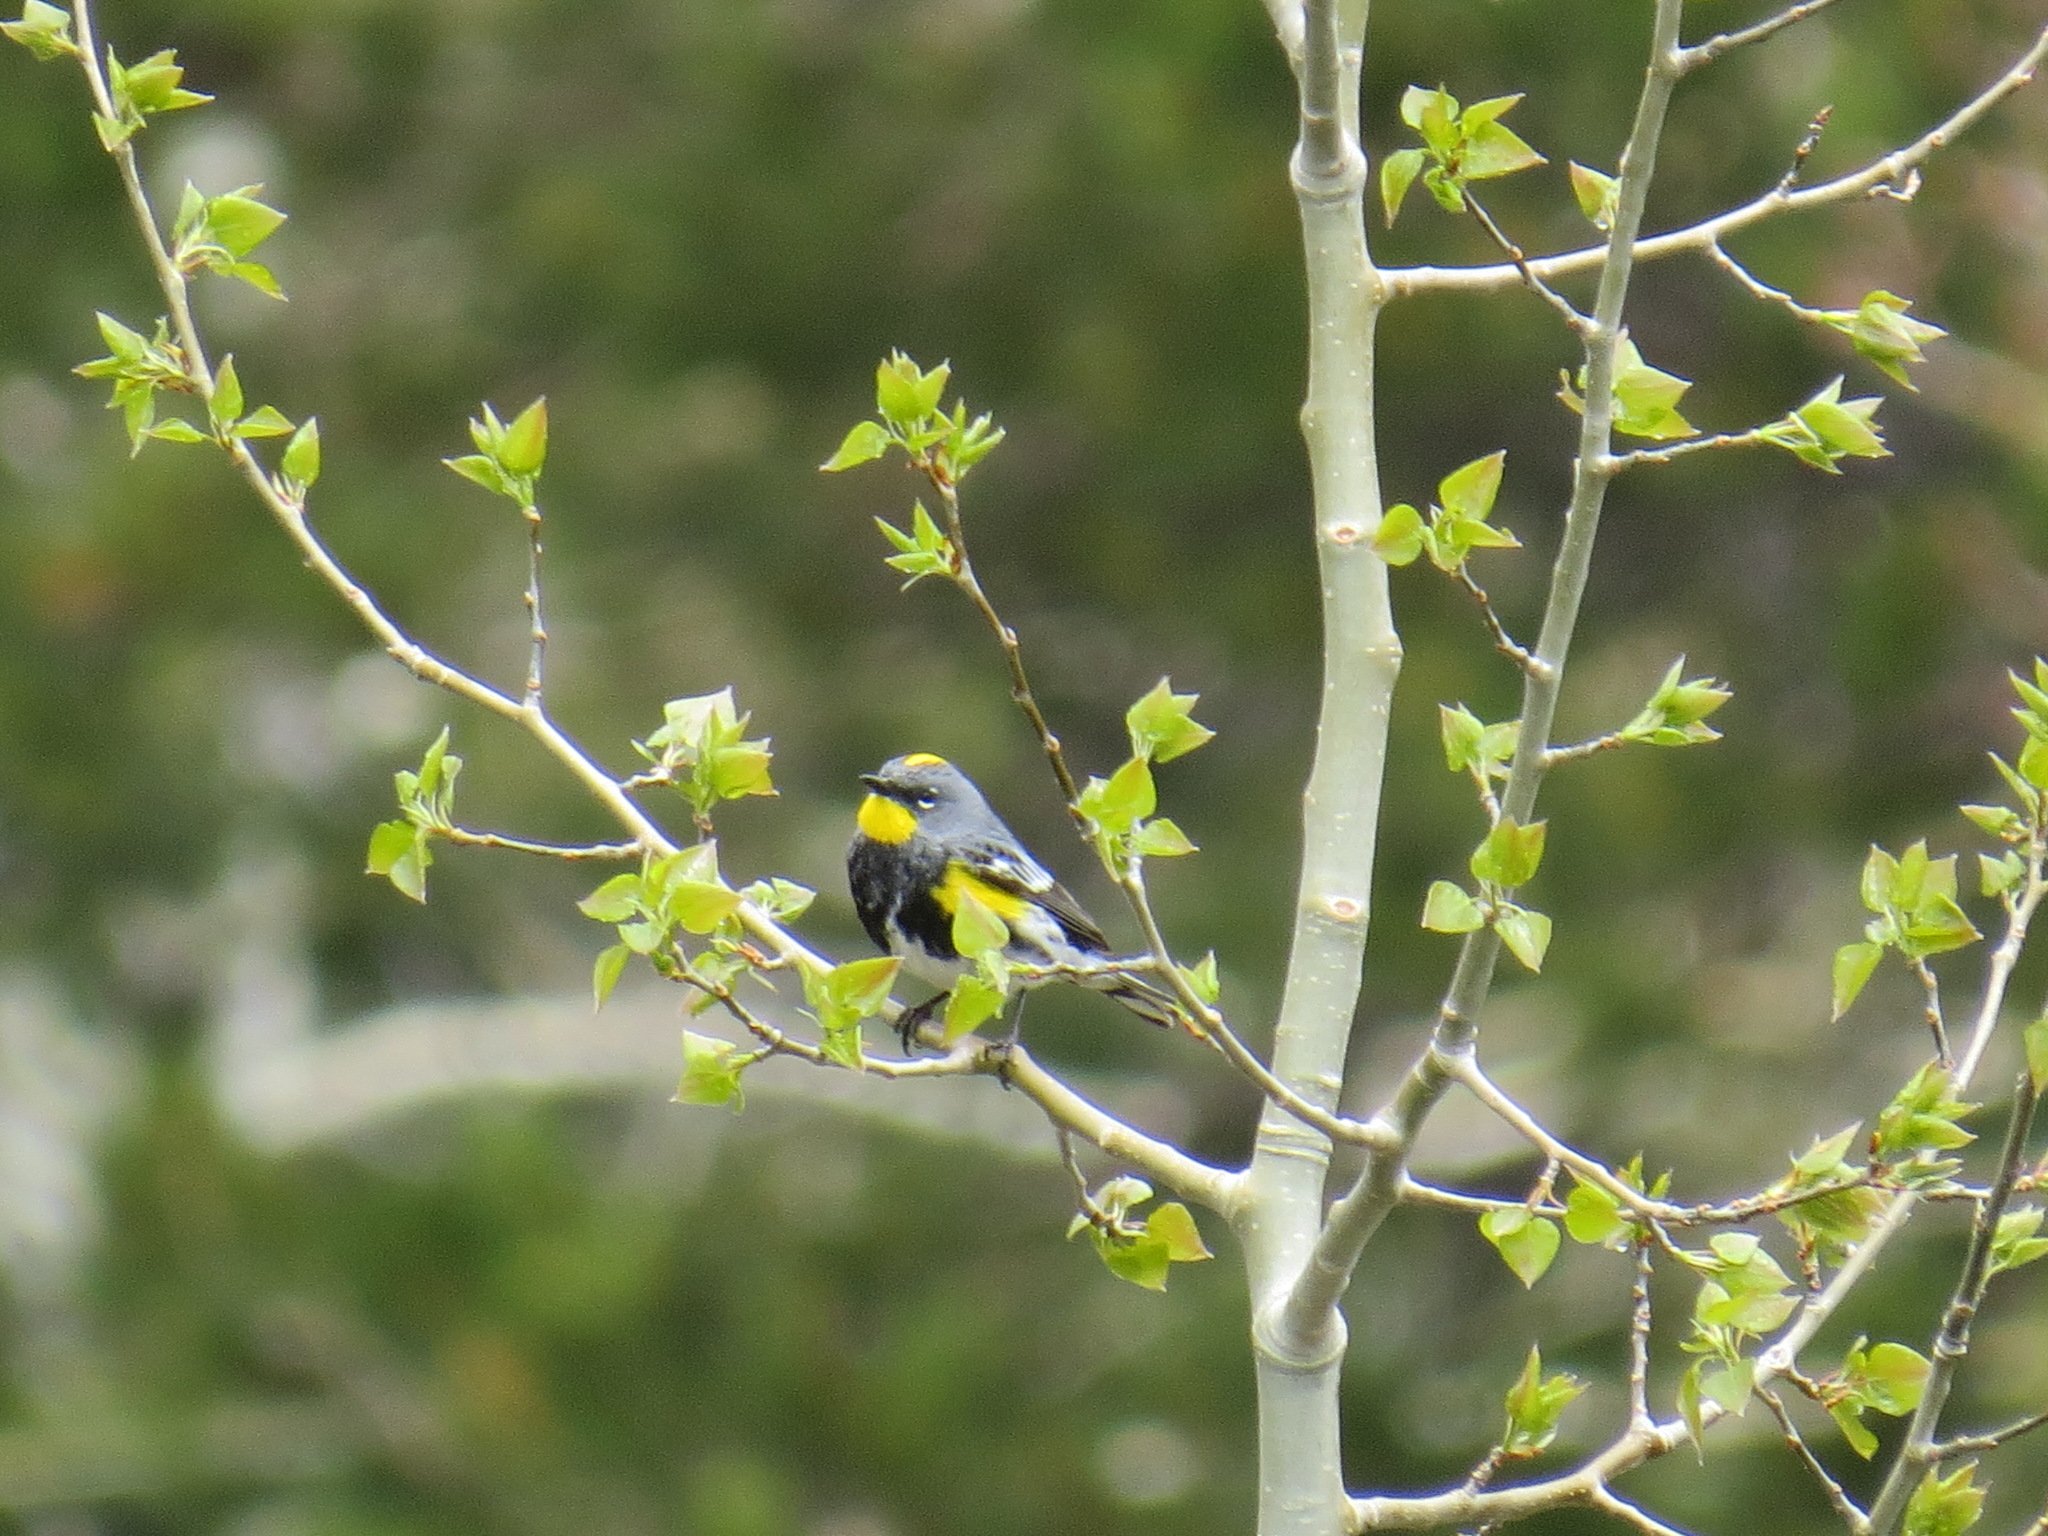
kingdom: Animalia
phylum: Chordata
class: Aves
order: Passeriformes
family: Parulidae
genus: Setophaga
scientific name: Setophaga coronata
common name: Myrtle warbler
